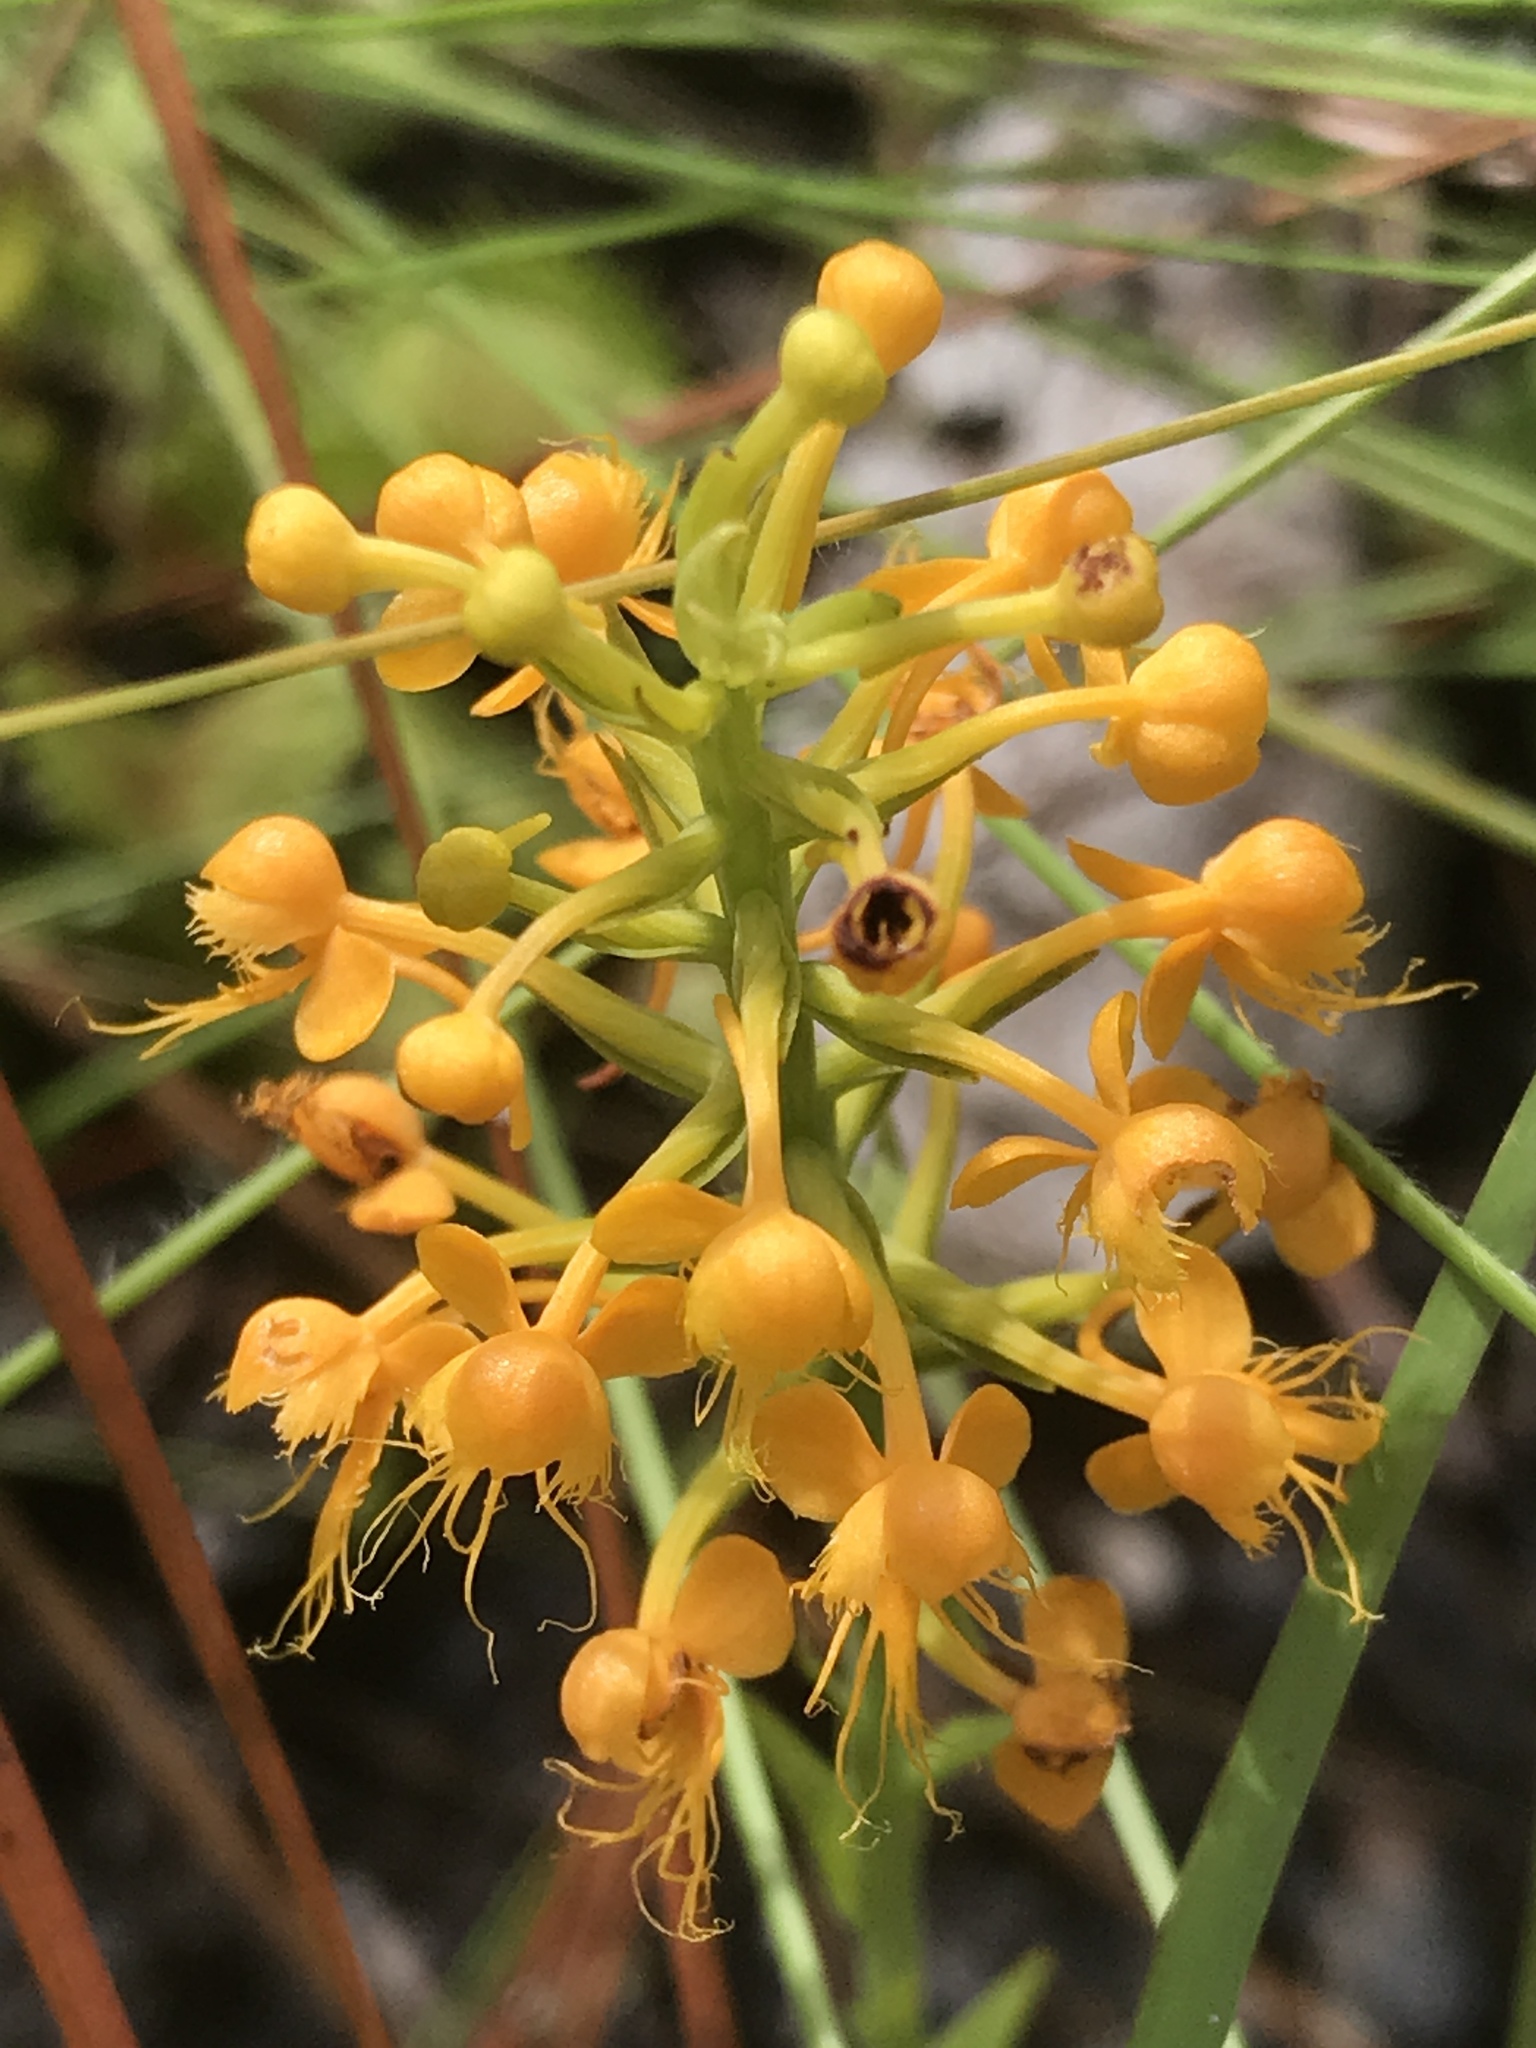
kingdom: Plantae
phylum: Tracheophyta
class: Liliopsida
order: Asparagales
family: Orchidaceae
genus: Platanthera
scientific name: Platanthera cristata
